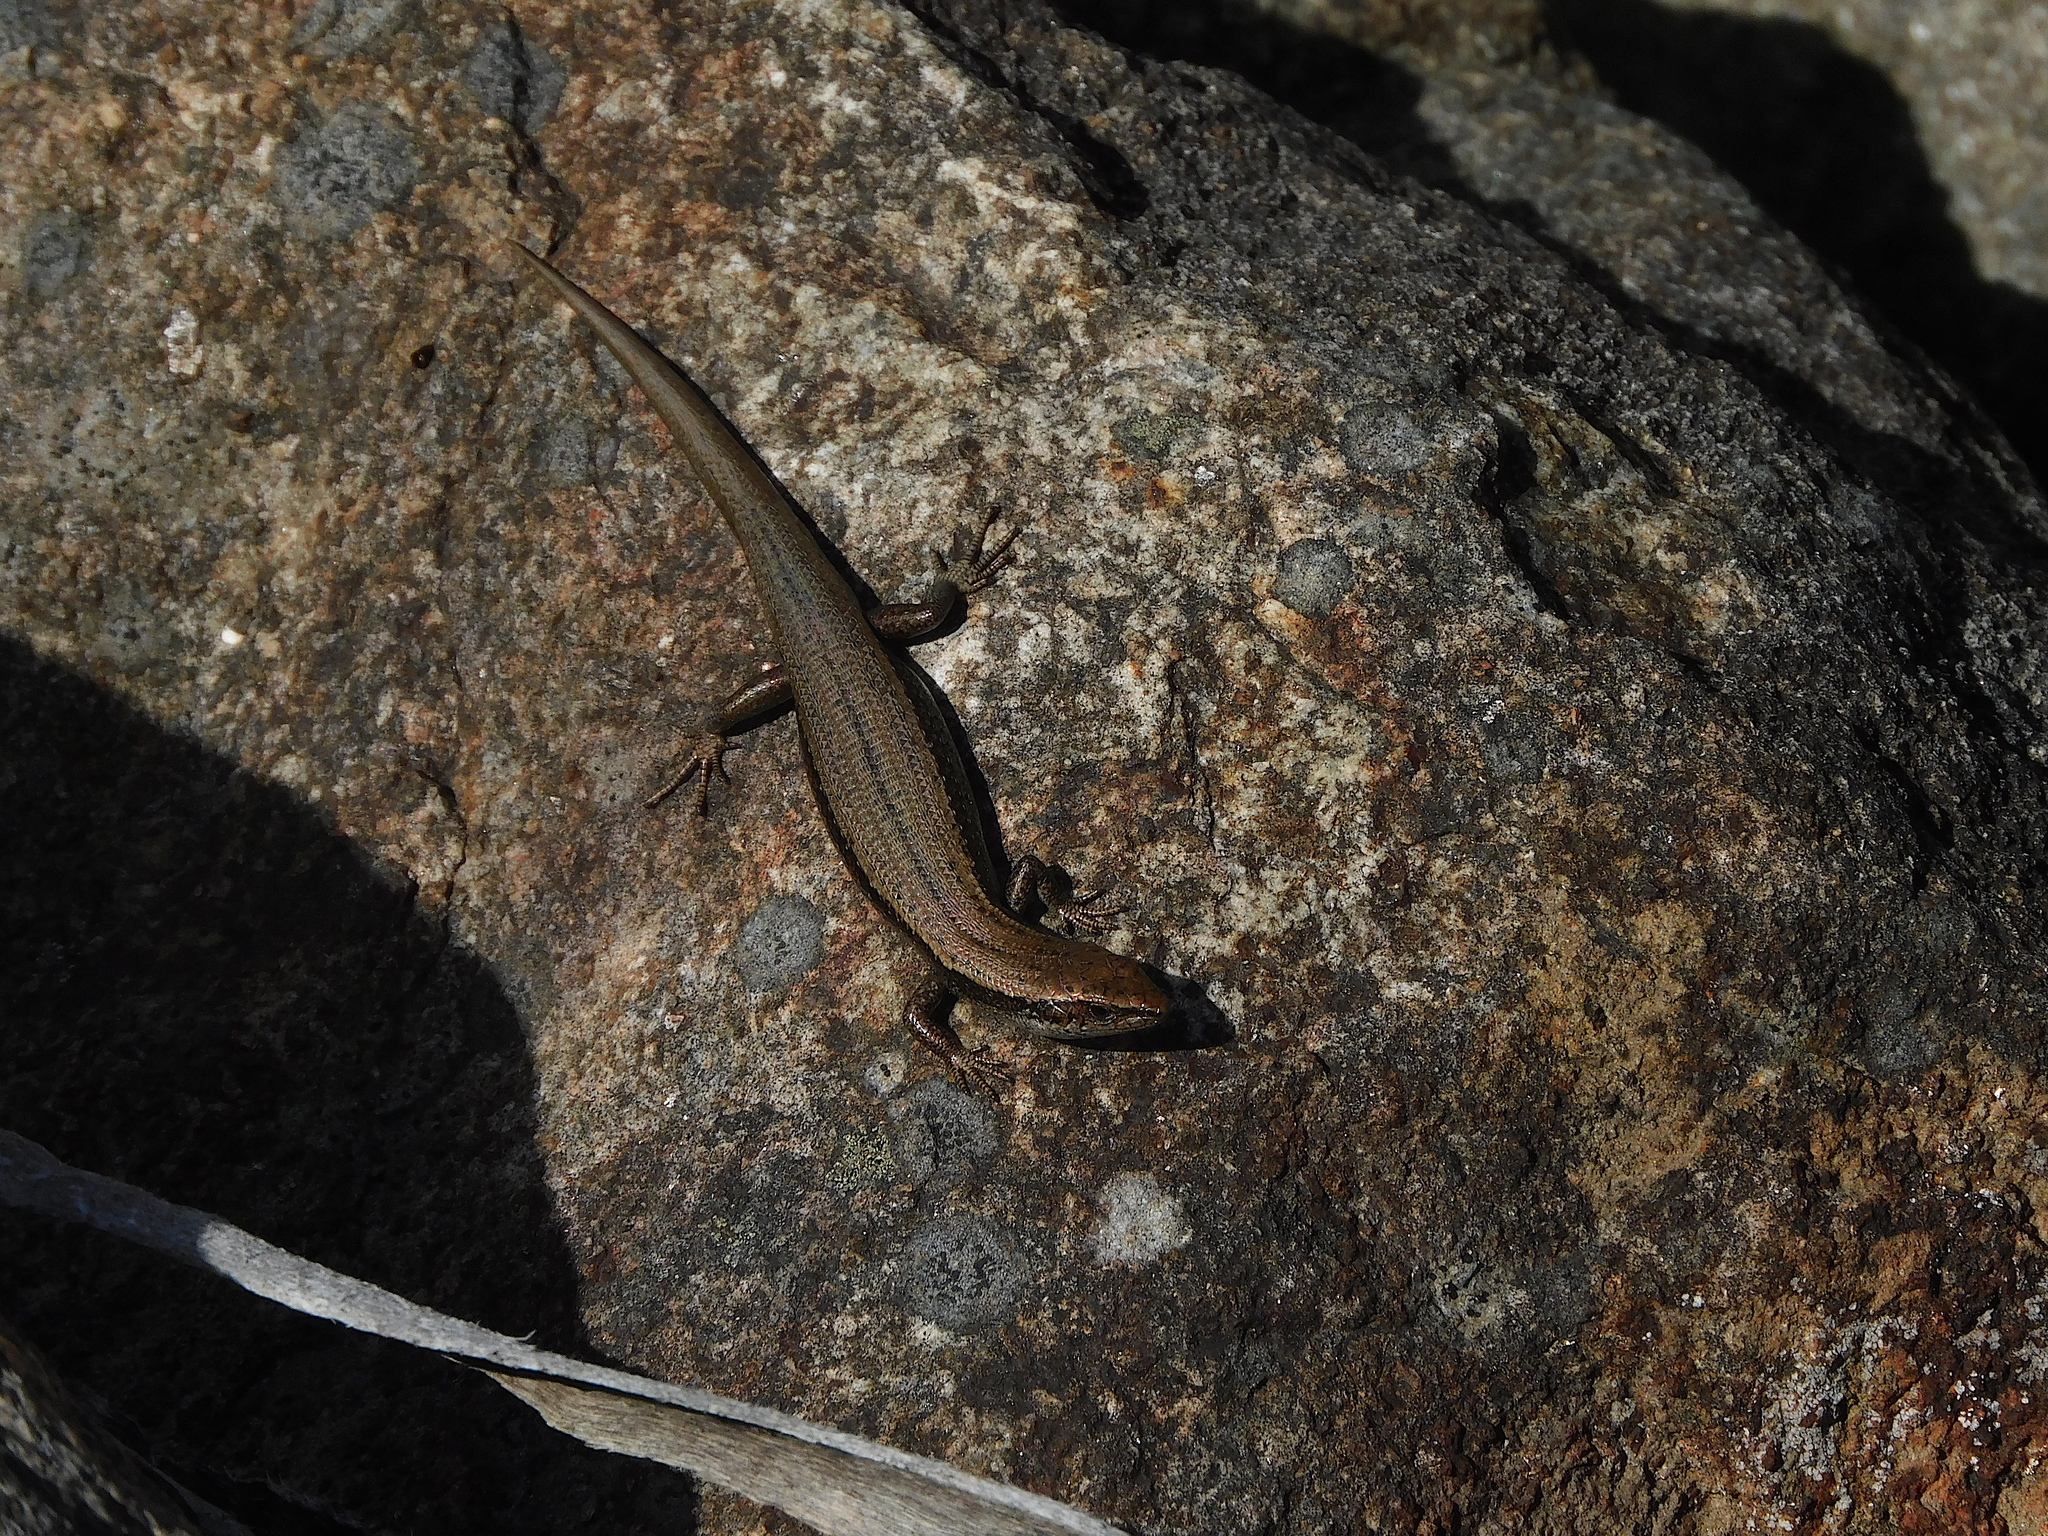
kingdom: Animalia
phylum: Chordata
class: Squamata
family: Scincidae
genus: Carinascincus
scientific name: Carinascincus metallicus
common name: Metallic cool-skink
